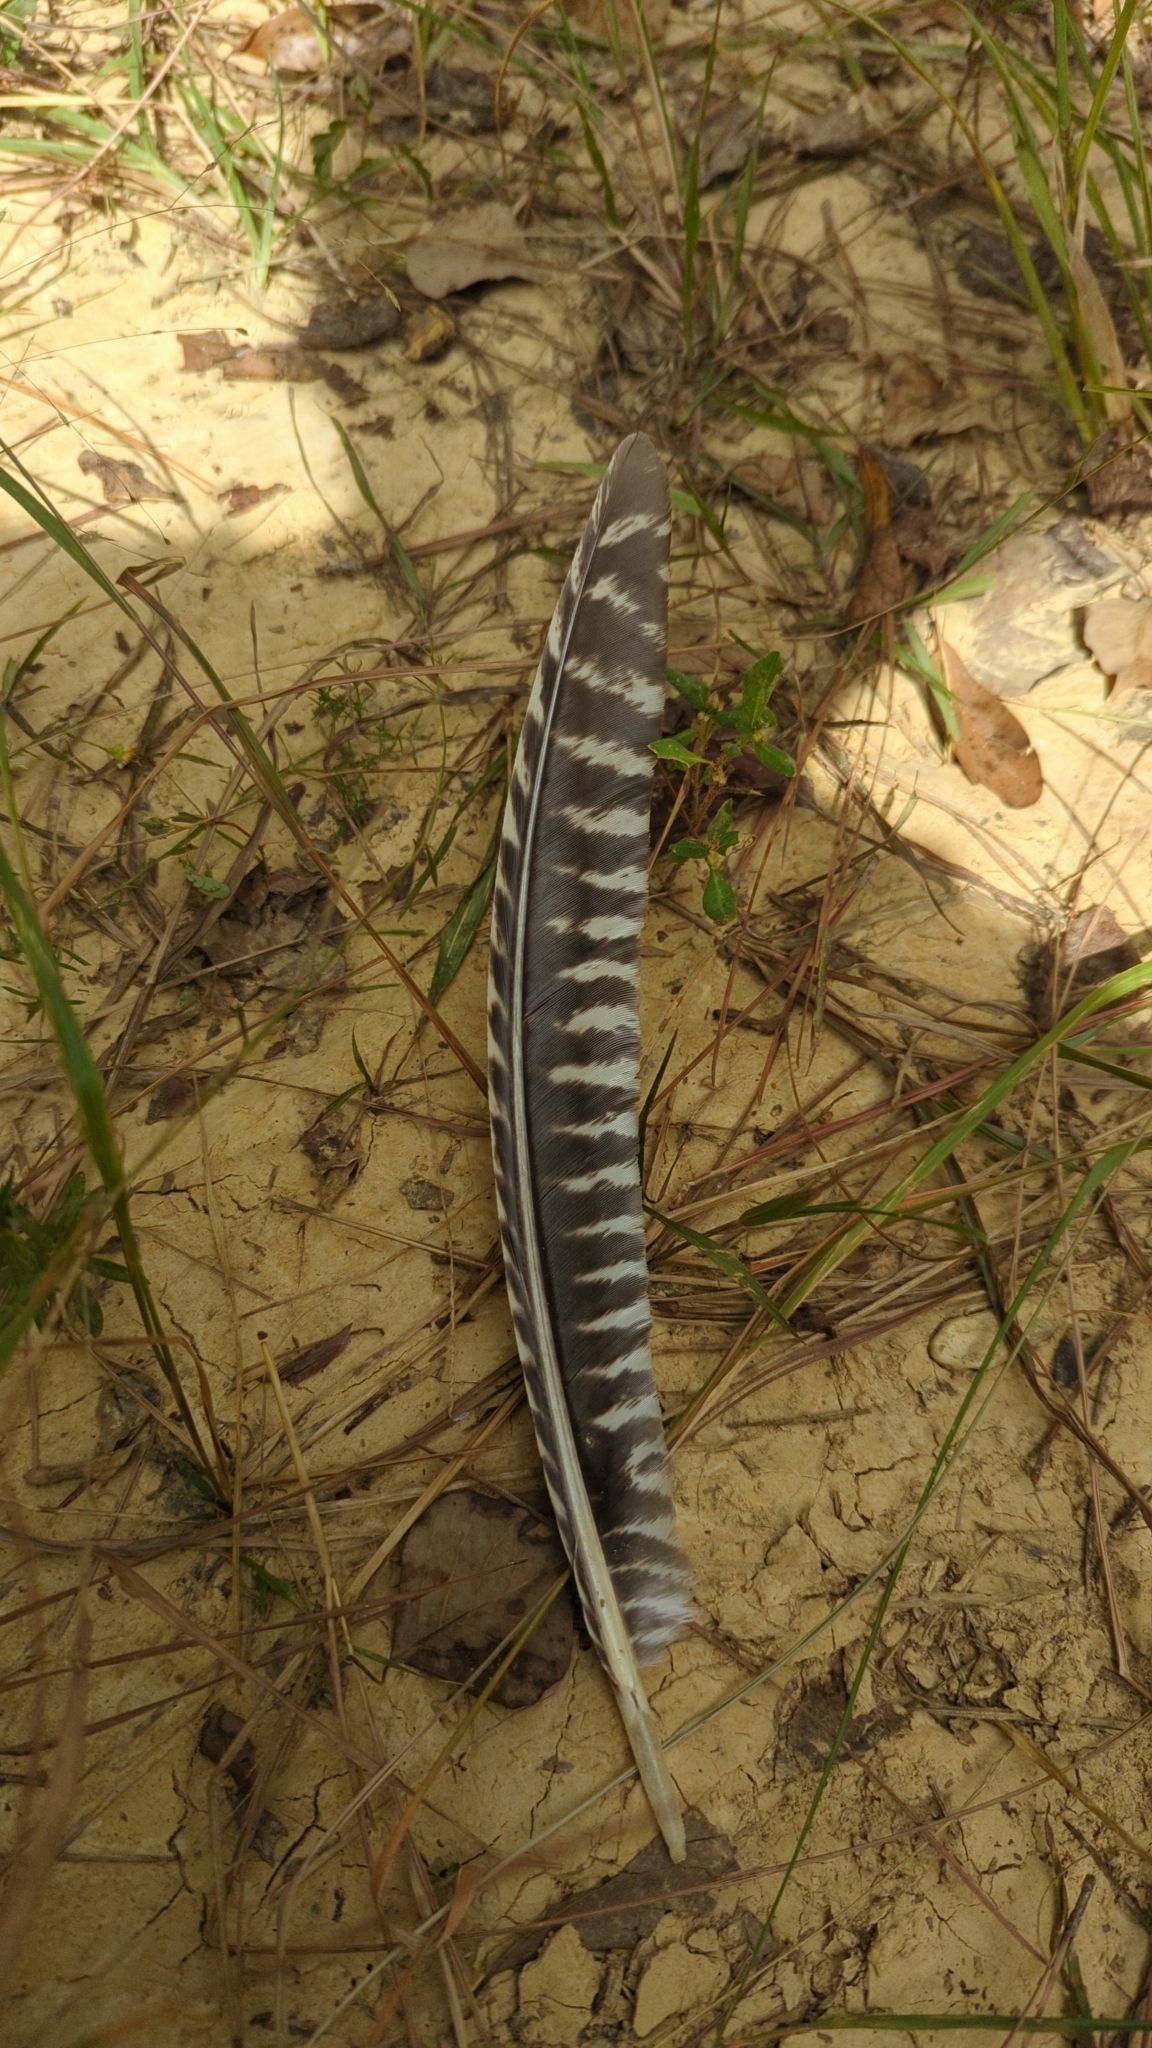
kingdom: Animalia
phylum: Chordata
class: Aves
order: Galliformes
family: Phasianidae
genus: Meleagris
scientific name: Meleagris gallopavo
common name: Wild turkey
